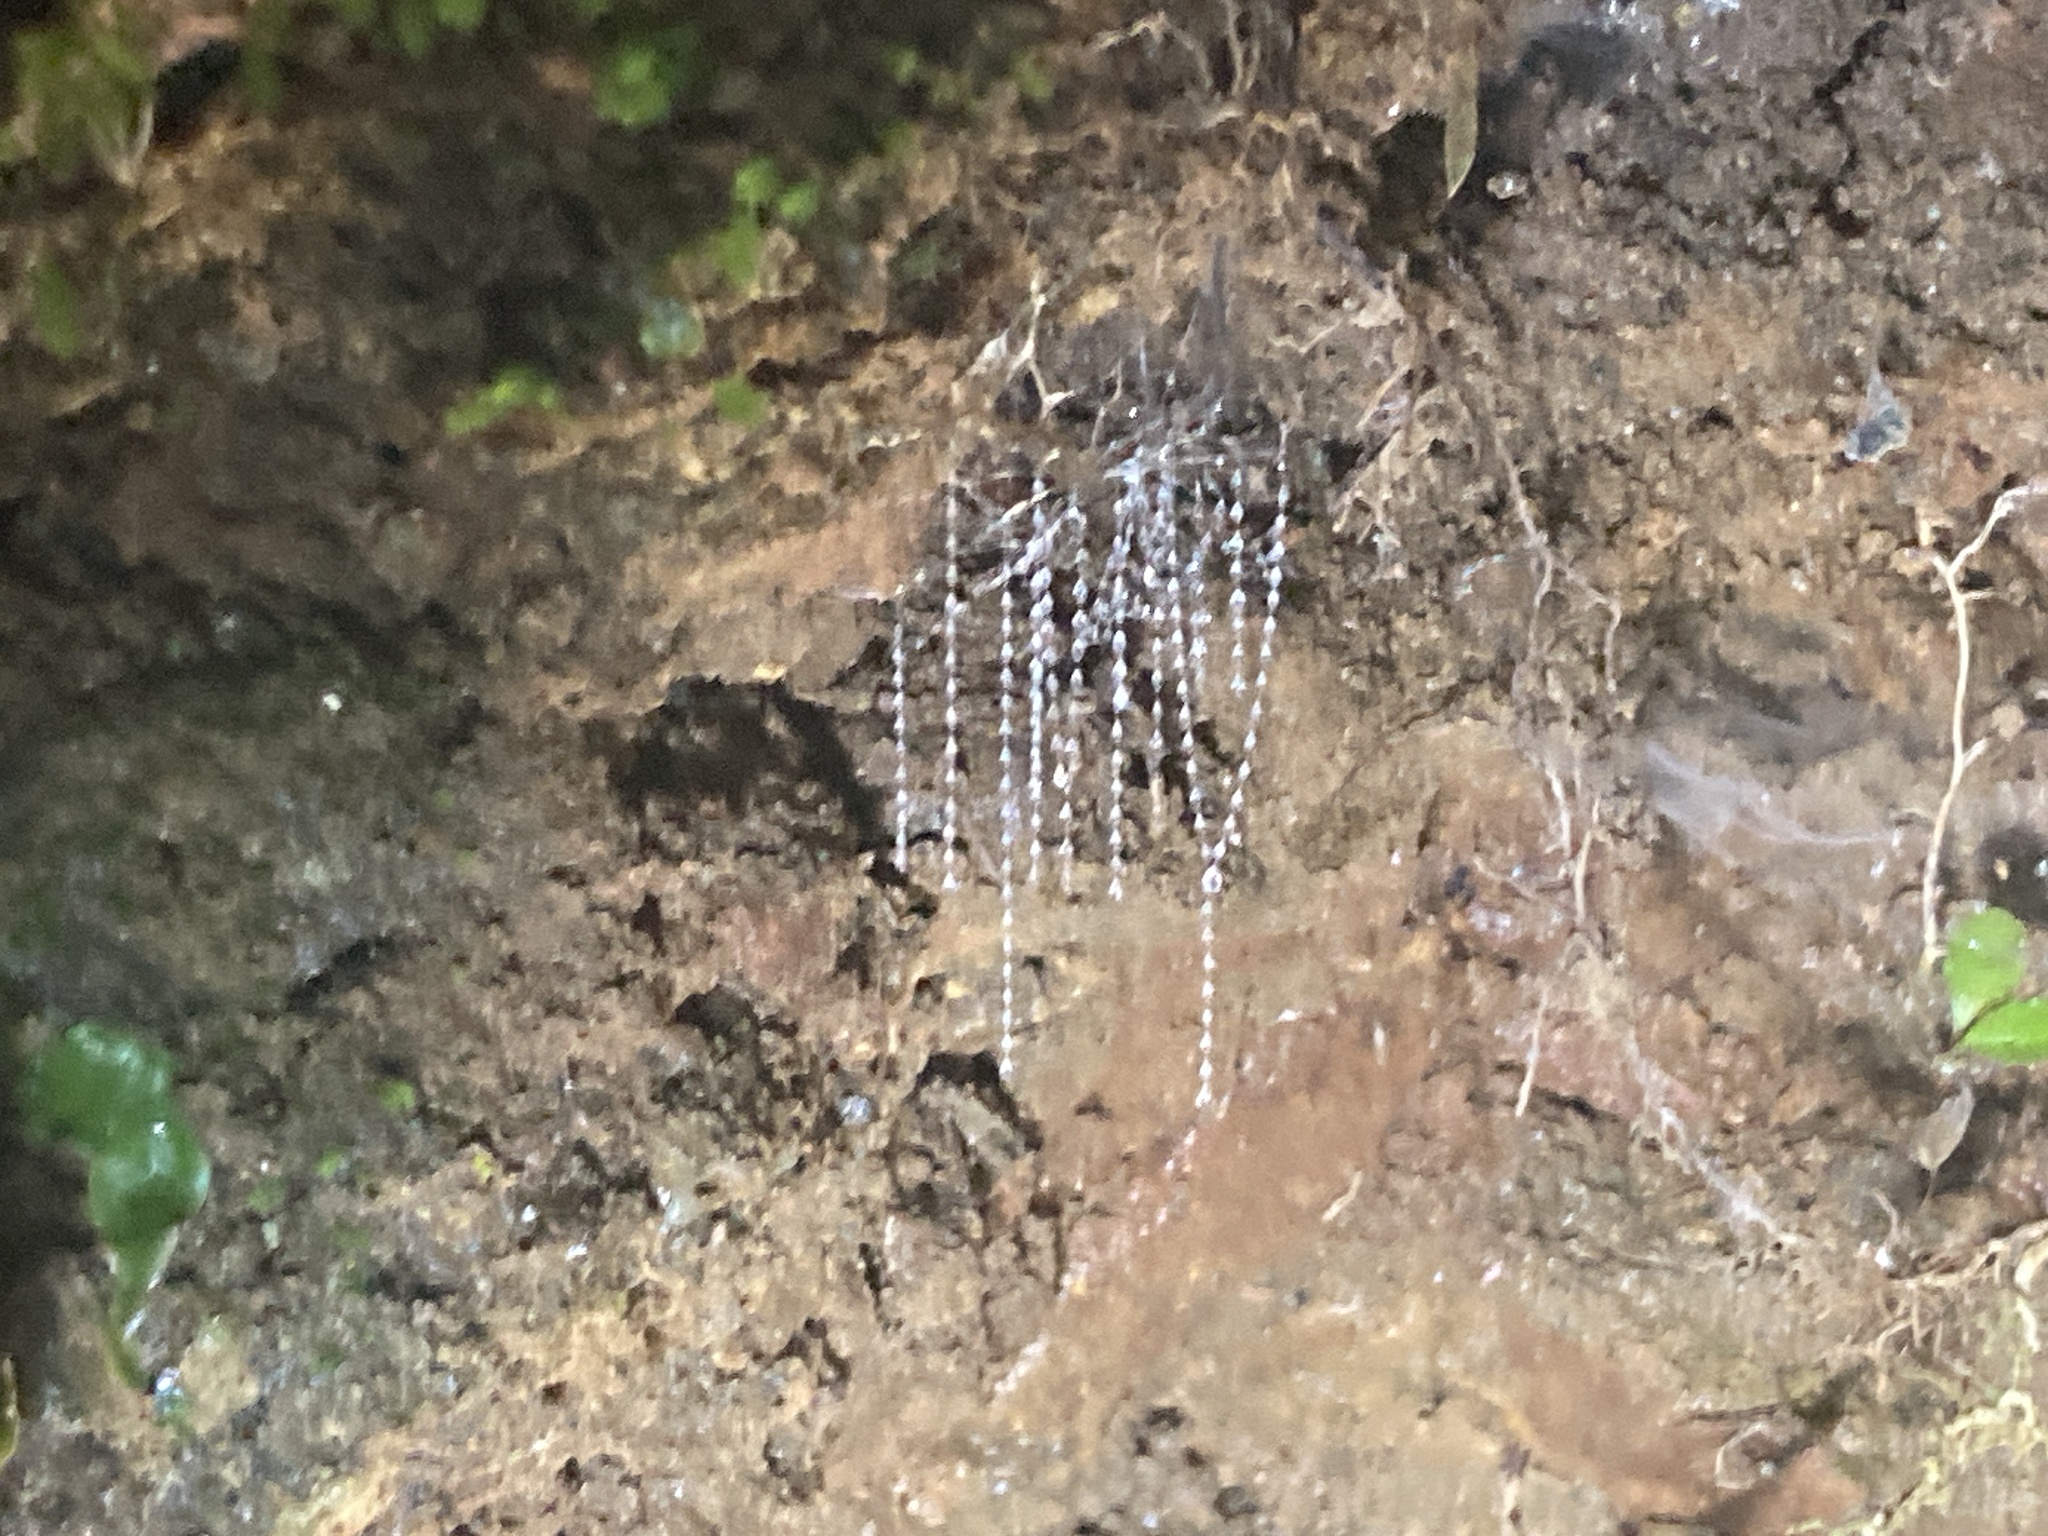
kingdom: Animalia
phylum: Arthropoda
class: Insecta
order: Diptera
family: Keroplatidae
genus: Arachnocampa
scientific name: Arachnocampa luminosa
